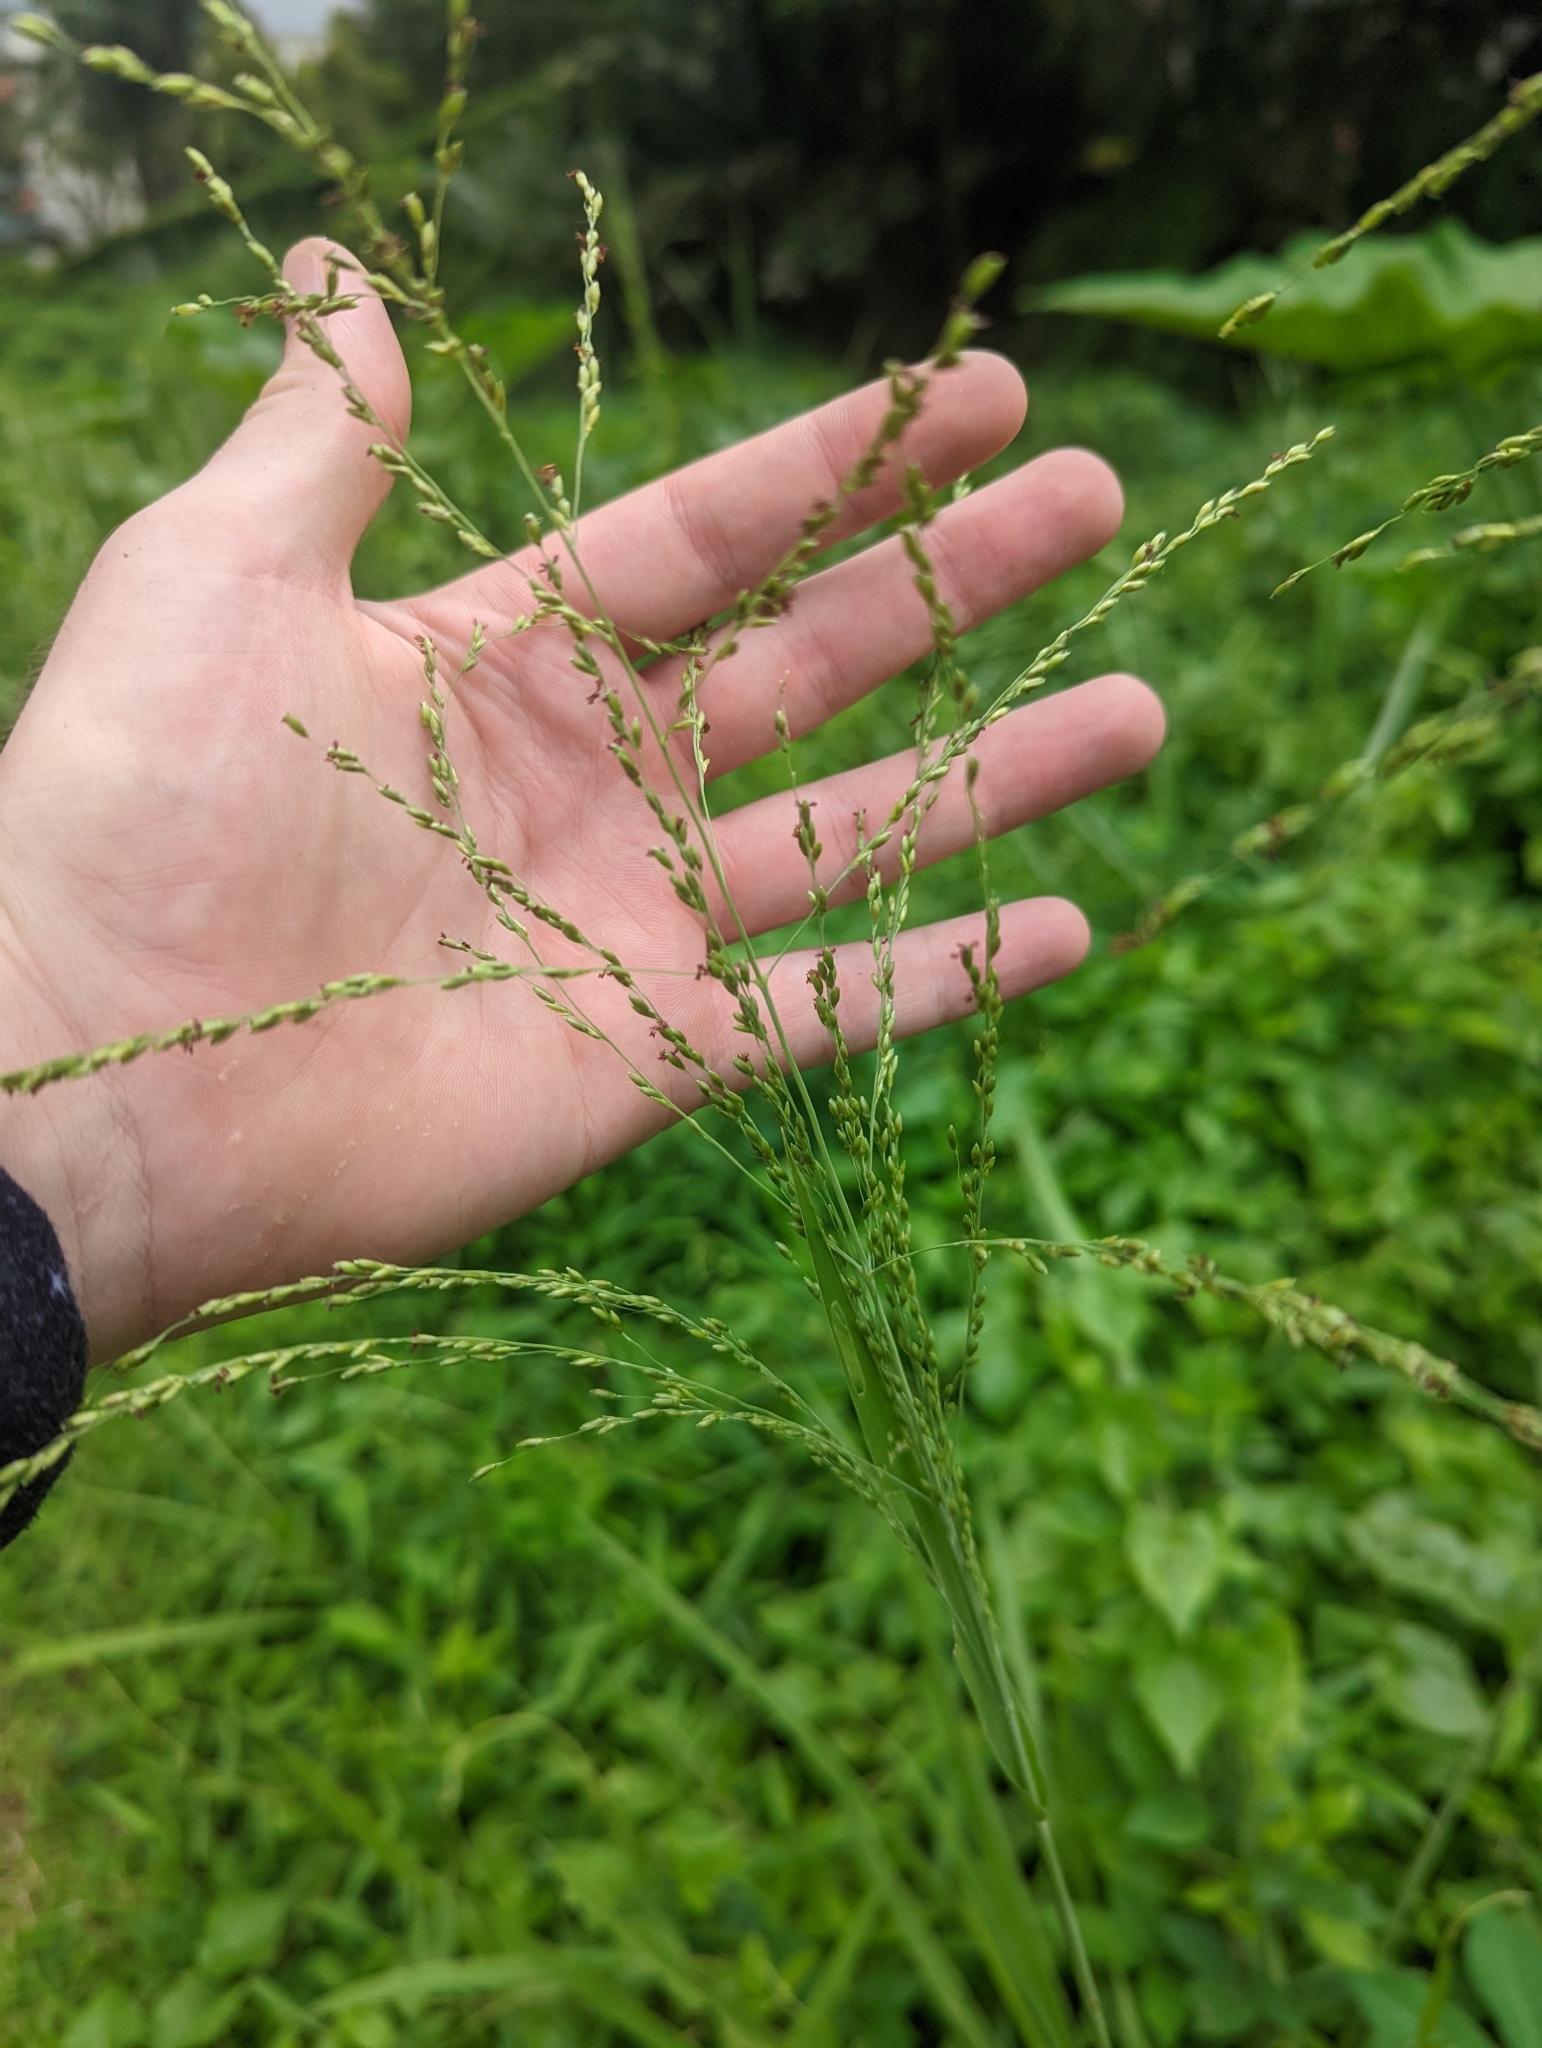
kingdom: Plantae
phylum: Tracheophyta
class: Liliopsida
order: Poales
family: Poaceae
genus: Megathyrsus
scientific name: Megathyrsus maximus
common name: Guineagrass
